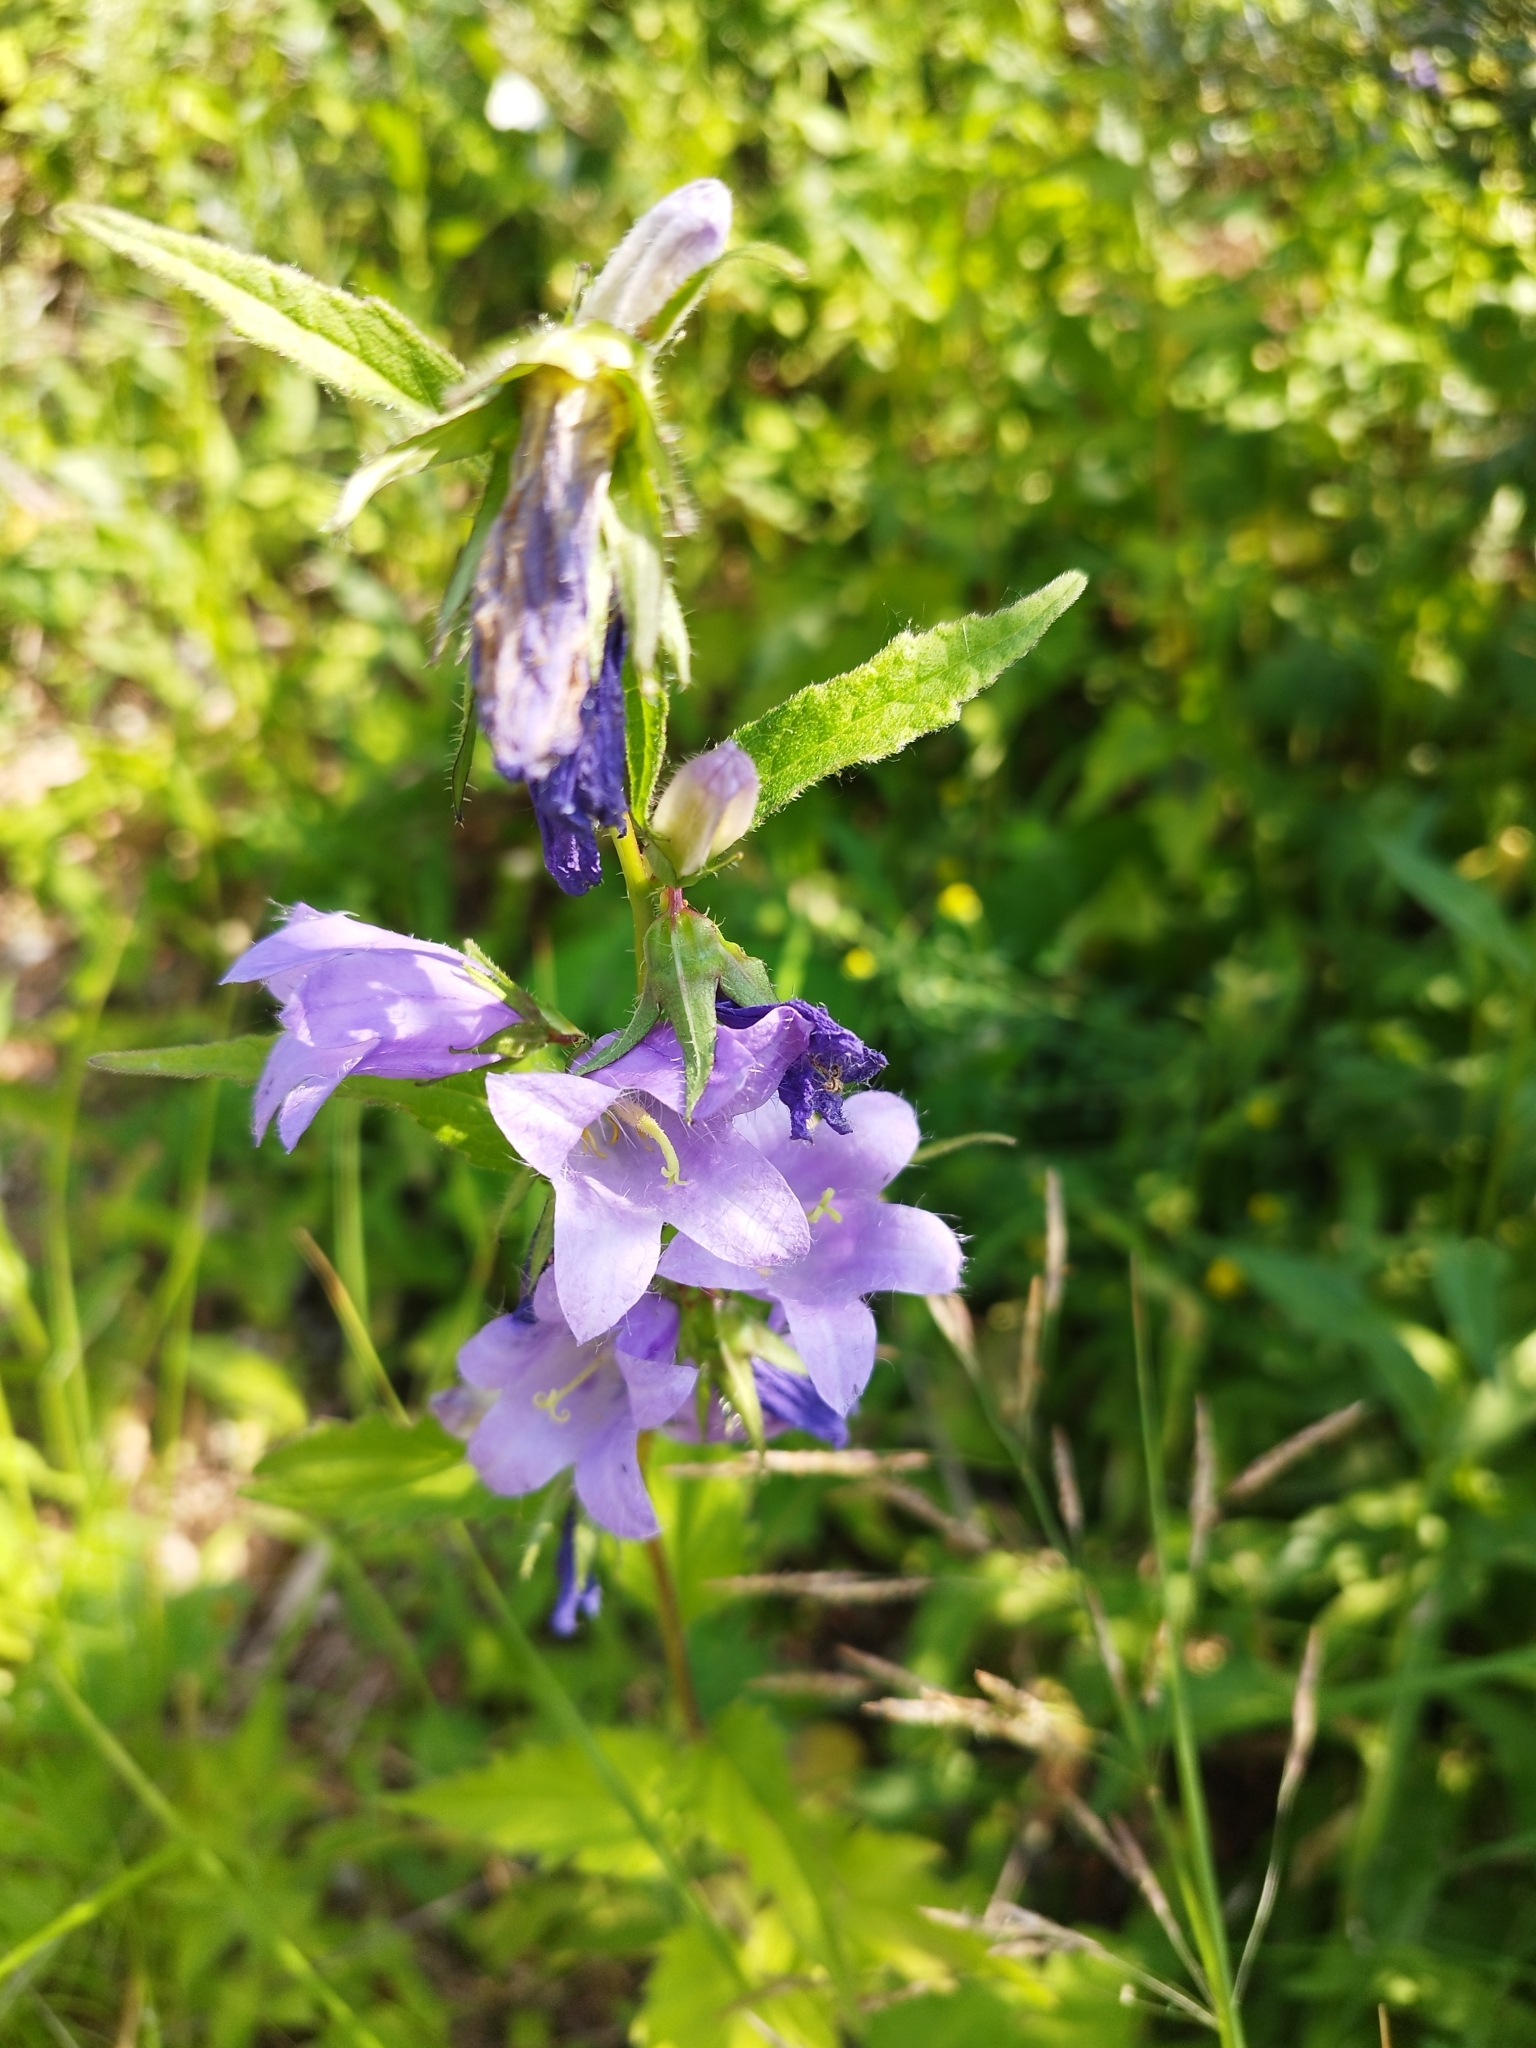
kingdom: Plantae
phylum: Tracheophyta
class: Magnoliopsida
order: Asterales
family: Campanulaceae
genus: Campanula
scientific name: Campanula trachelium
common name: Nettle-leaved bellflower
